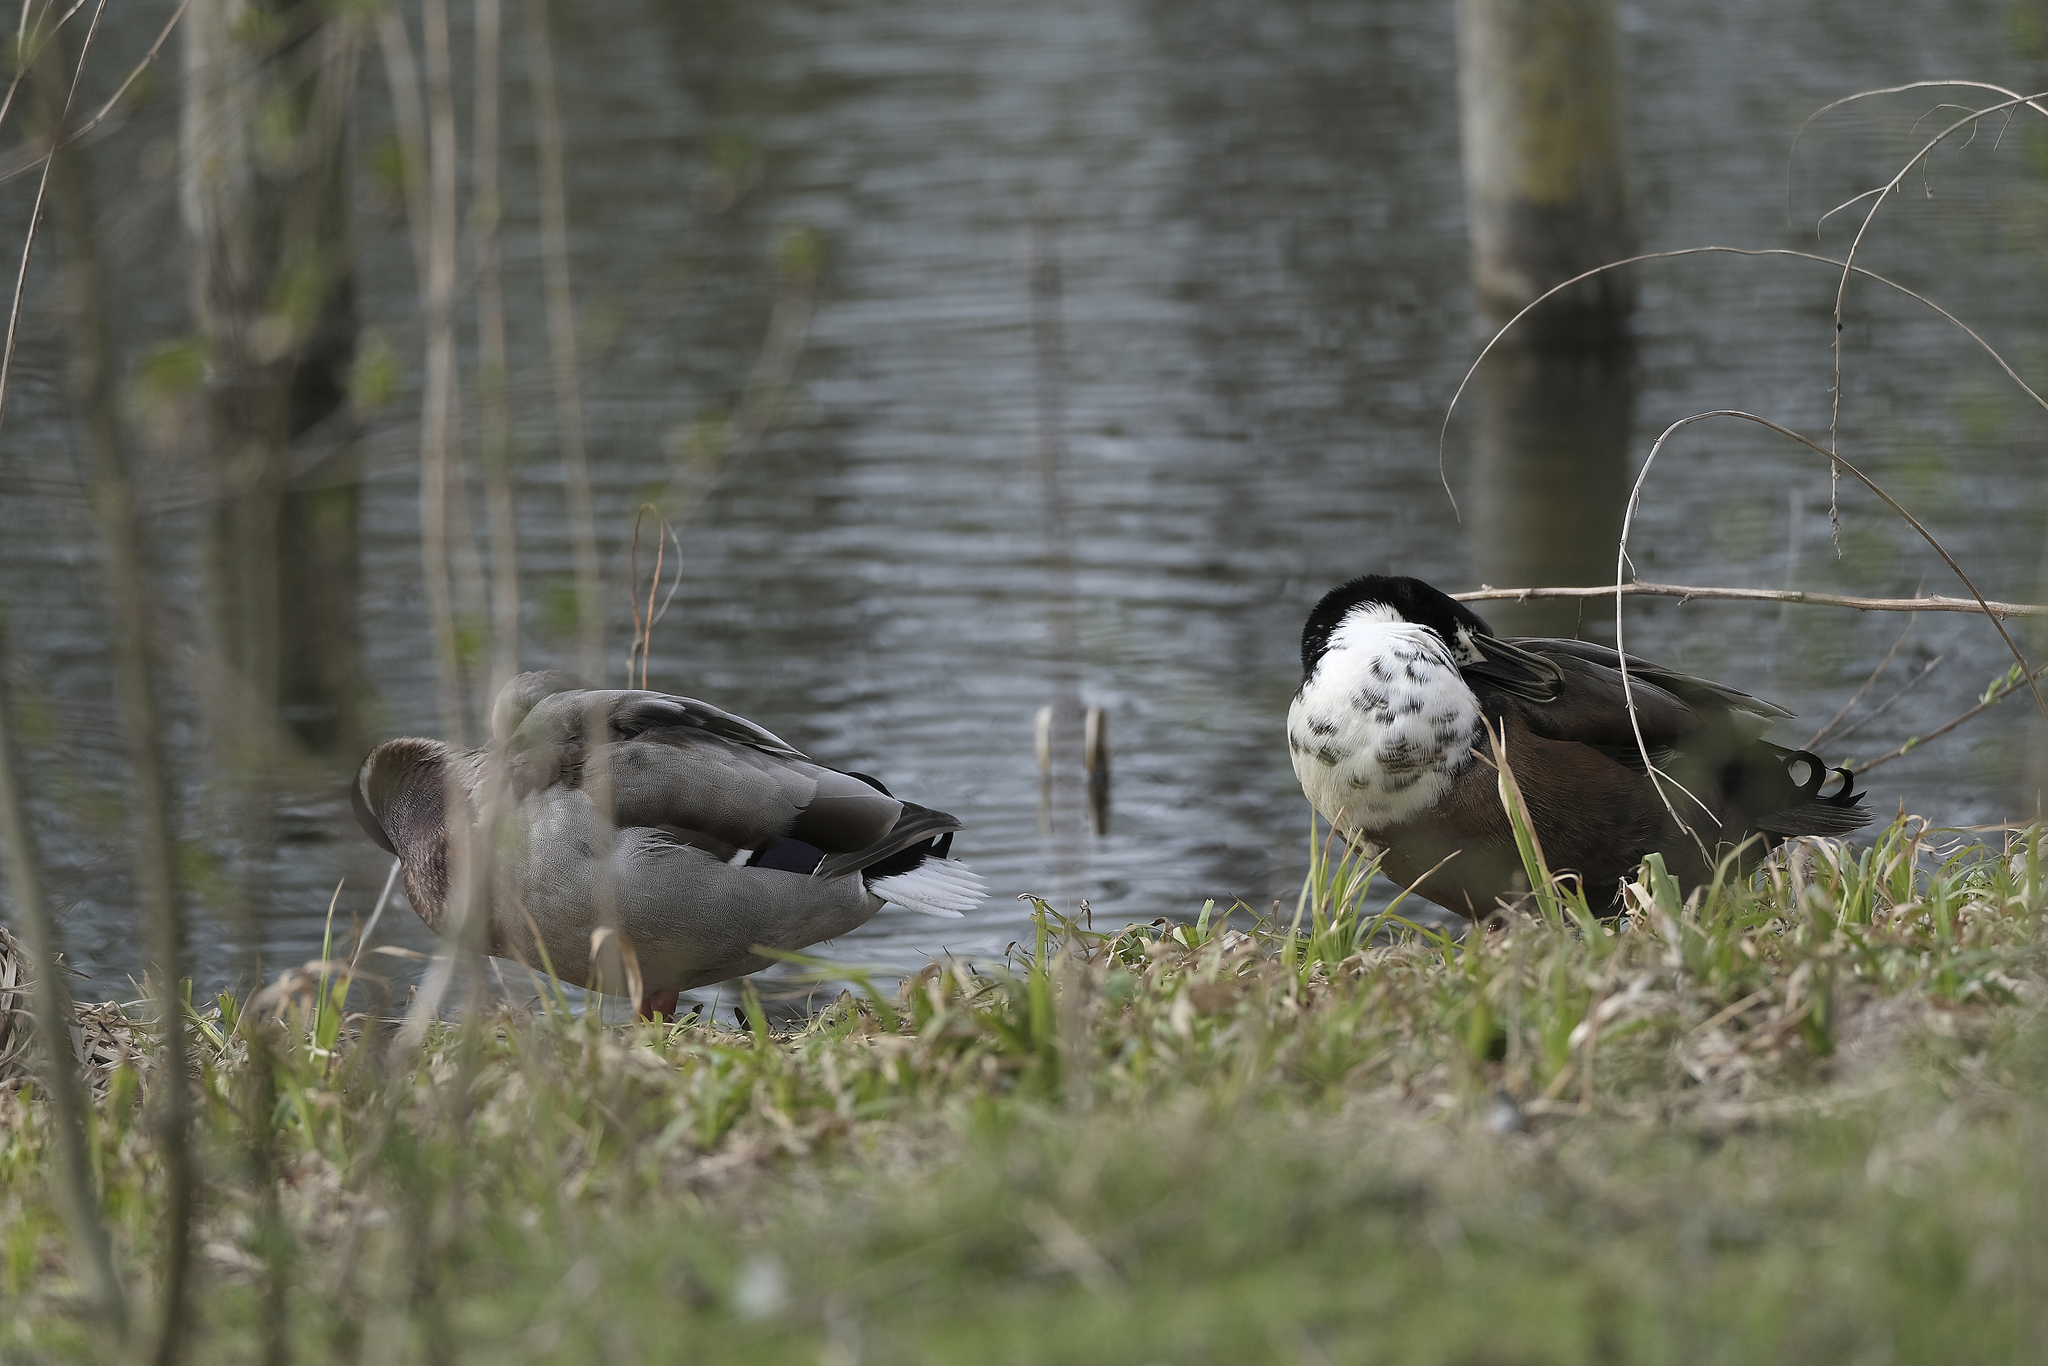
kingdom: Animalia
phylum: Chordata
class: Aves
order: Anseriformes
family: Anatidae
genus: Anas
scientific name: Anas platyrhynchos
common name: Mallard
